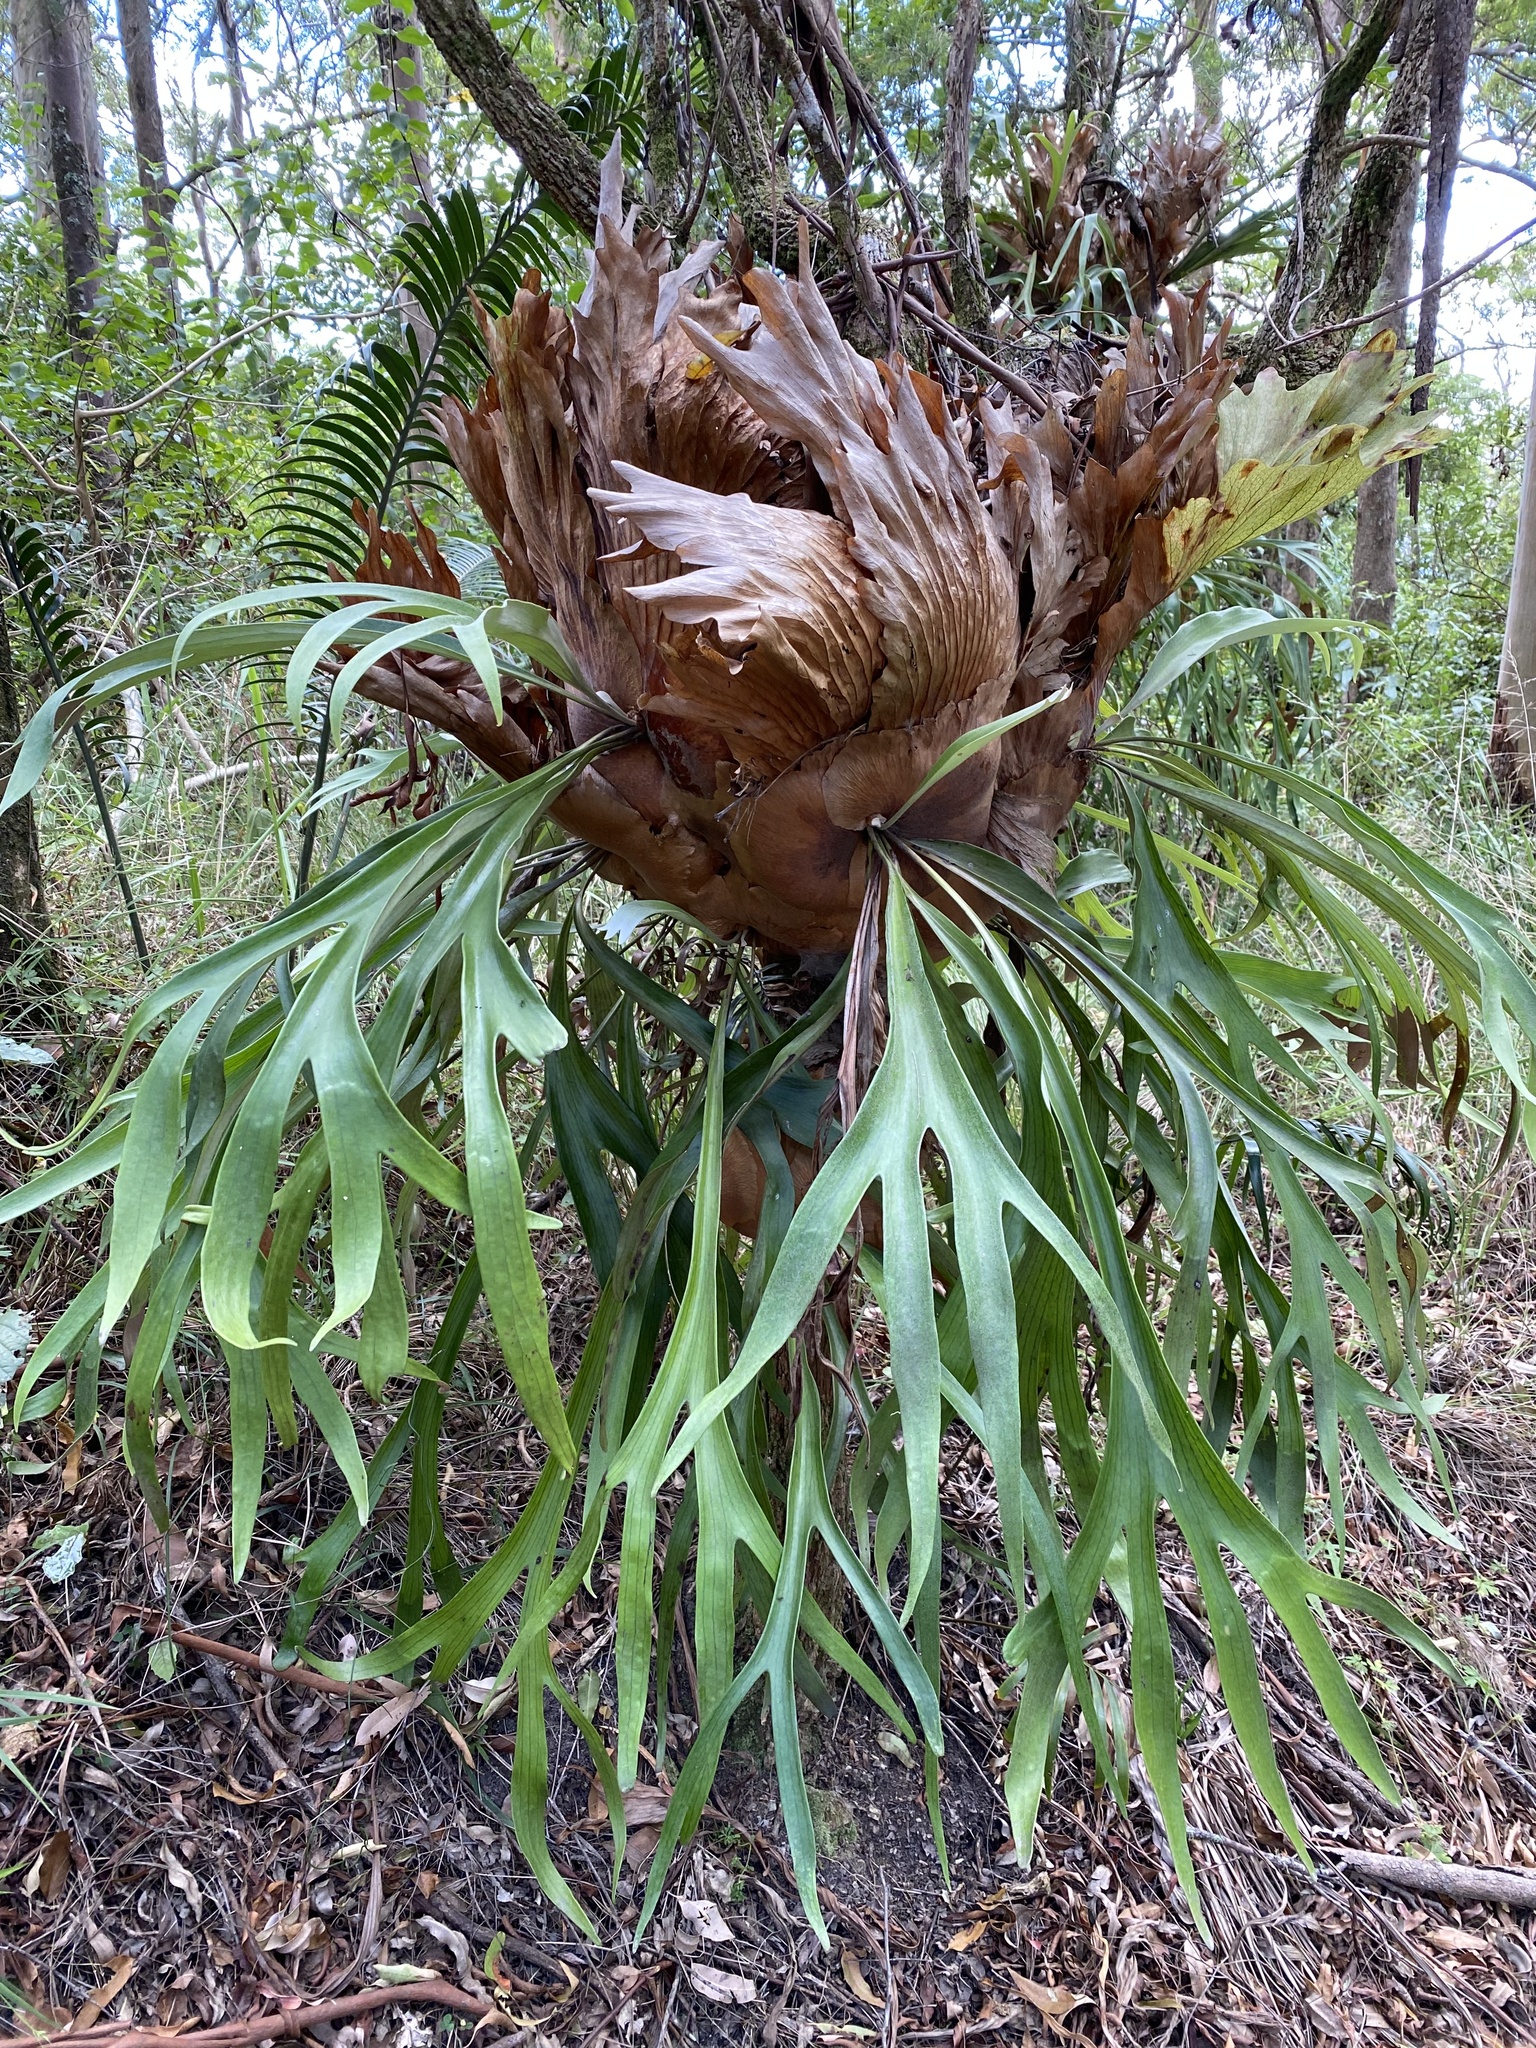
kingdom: Plantae
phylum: Tracheophyta
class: Polypodiopsida
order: Polypodiales
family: Polypodiaceae
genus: Platycerium
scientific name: Platycerium bifurcatum
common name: Elkhorn fern
